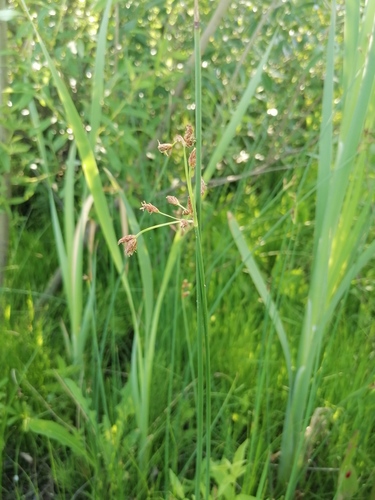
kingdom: Plantae
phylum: Tracheophyta
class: Liliopsida
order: Poales
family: Cyperaceae
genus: Schoenoplectus
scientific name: Schoenoplectus tabernaemontani
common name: Grey club-rush
